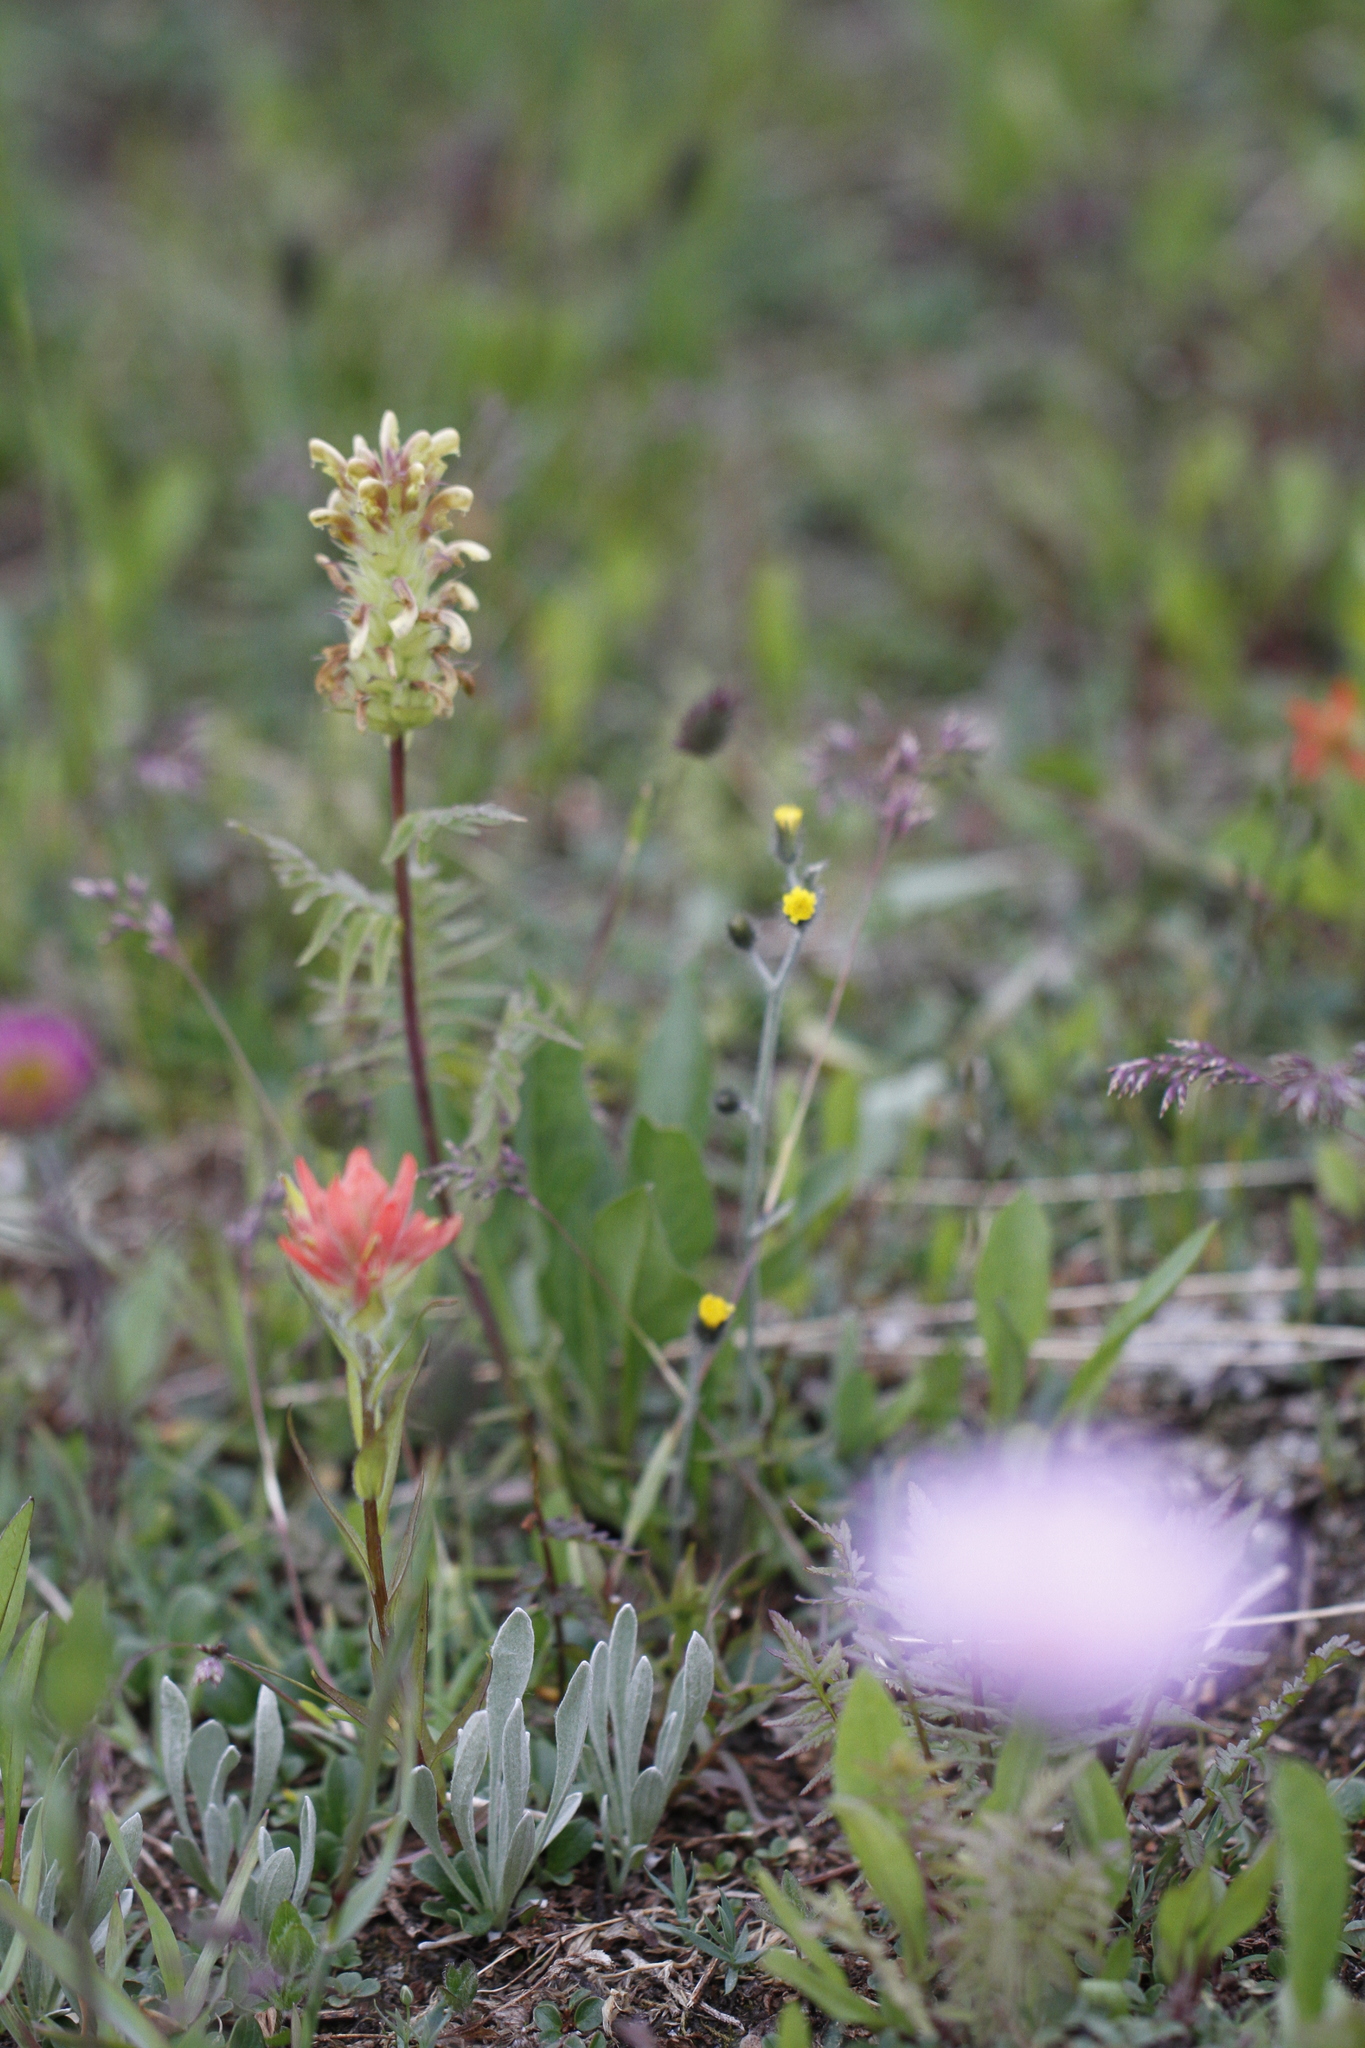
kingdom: Plantae
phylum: Tracheophyta
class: Magnoliopsida
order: Lamiales
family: Orobanchaceae
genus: Pedicularis
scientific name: Pedicularis bracteosa
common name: Bracted lousewort
